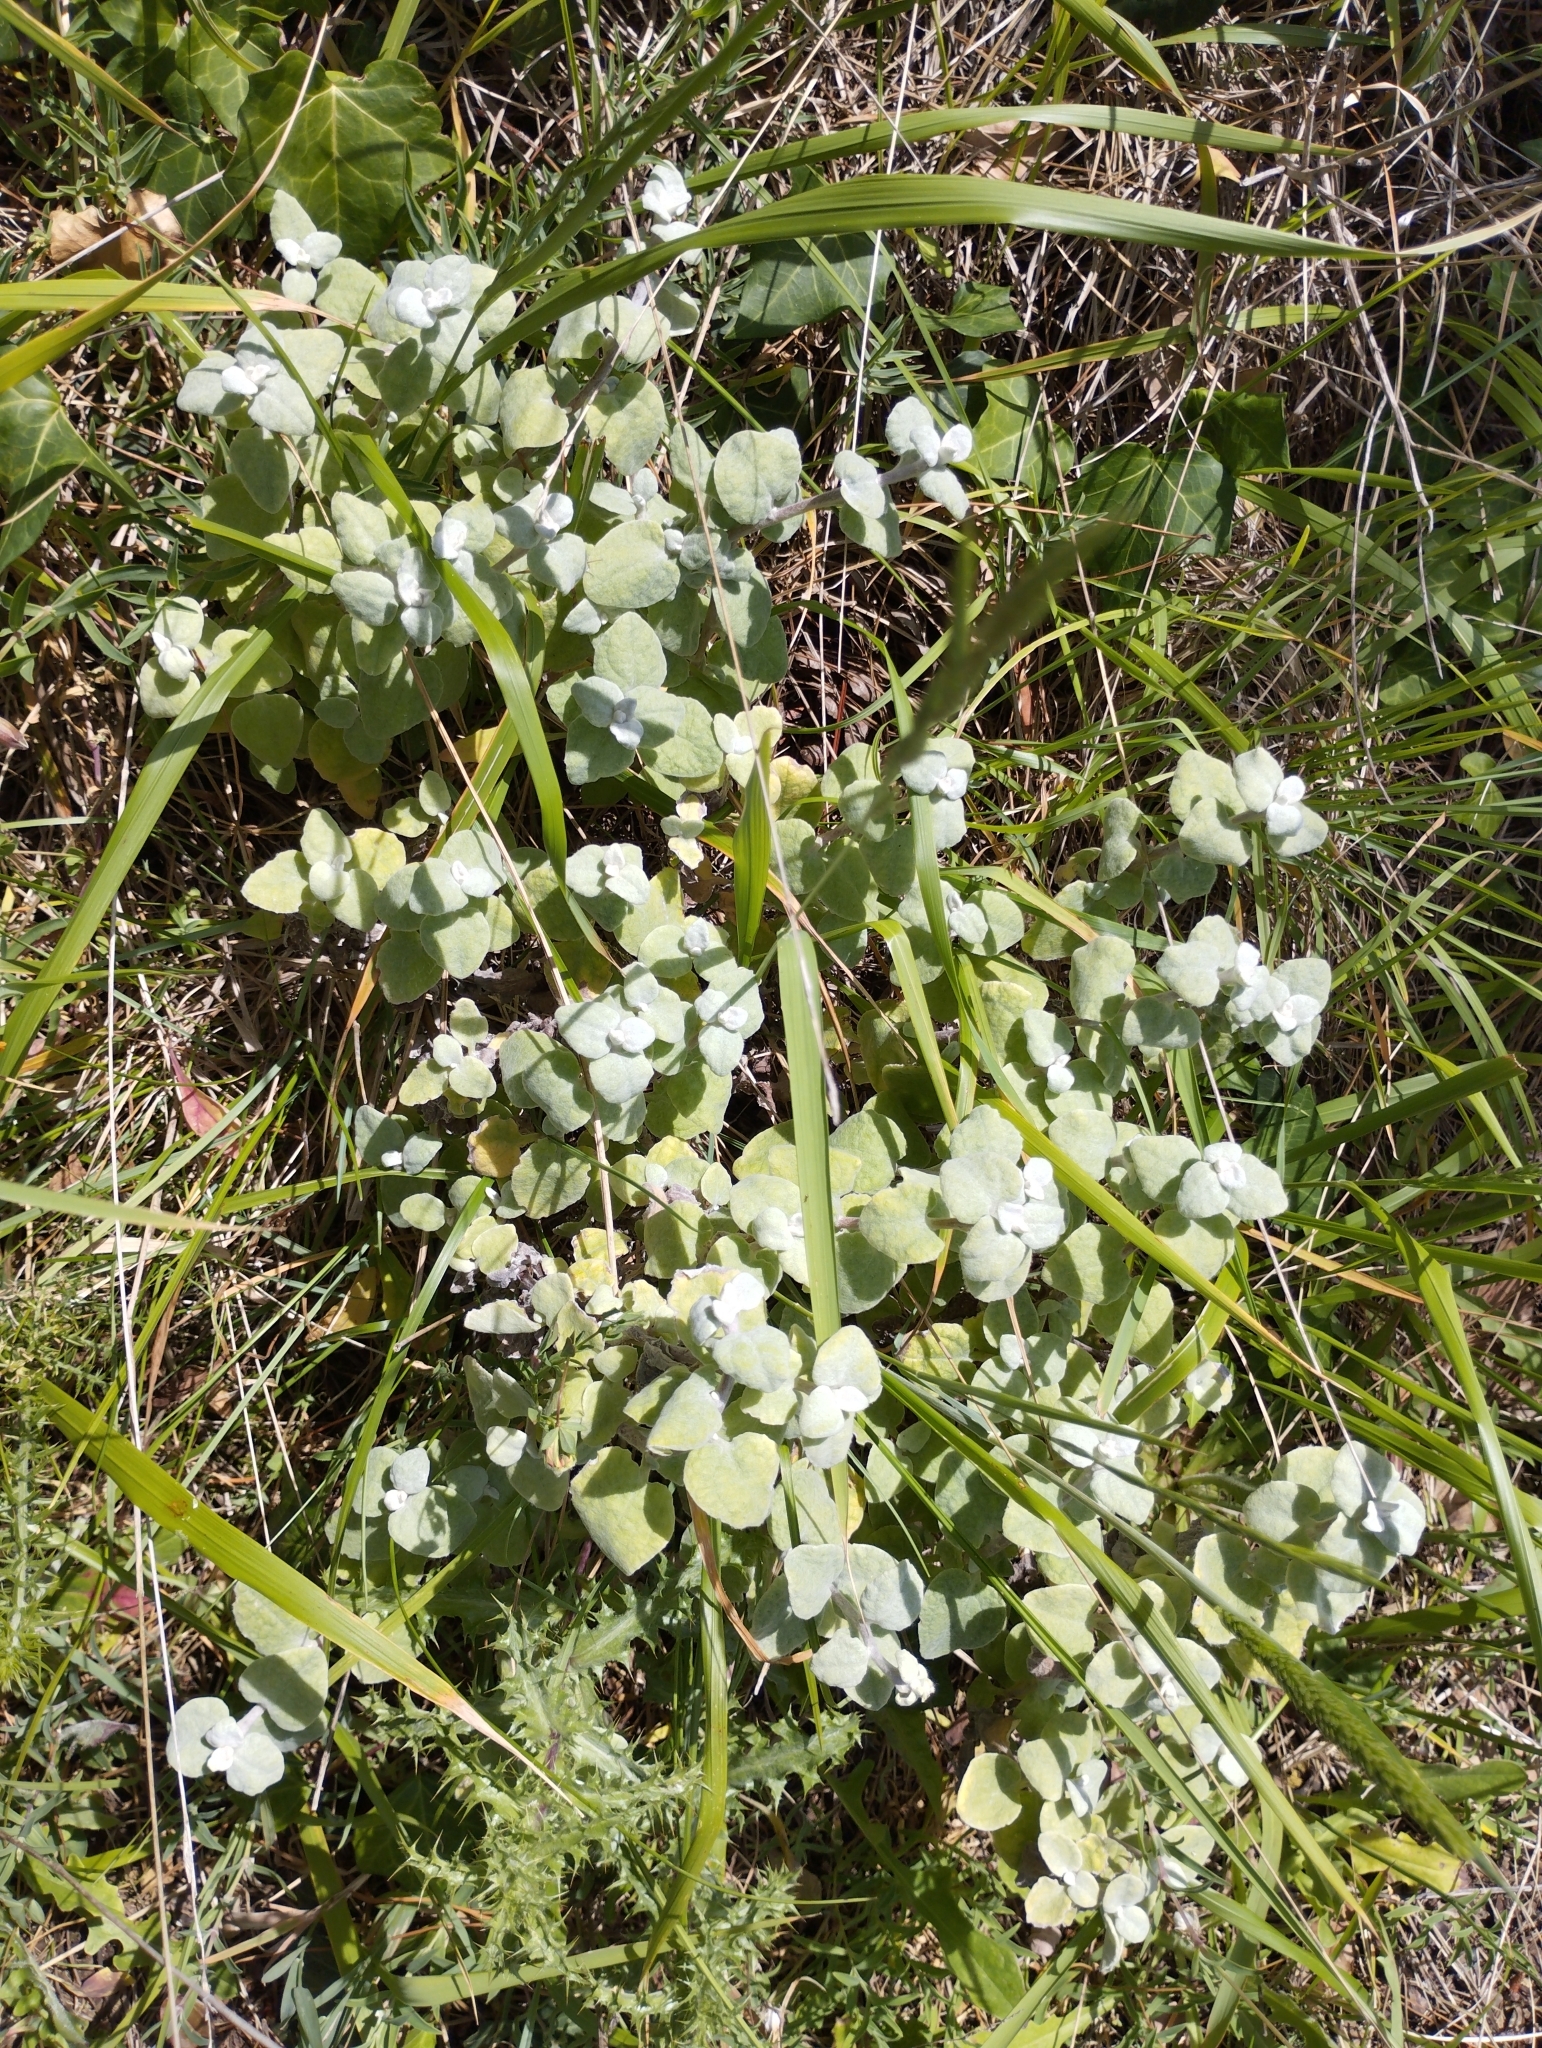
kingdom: Plantae
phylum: Tracheophyta
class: Magnoliopsida
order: Asterales
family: Asteraceae
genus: Helichrysum
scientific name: Helichrysum petiolare
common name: Licorice-plant
